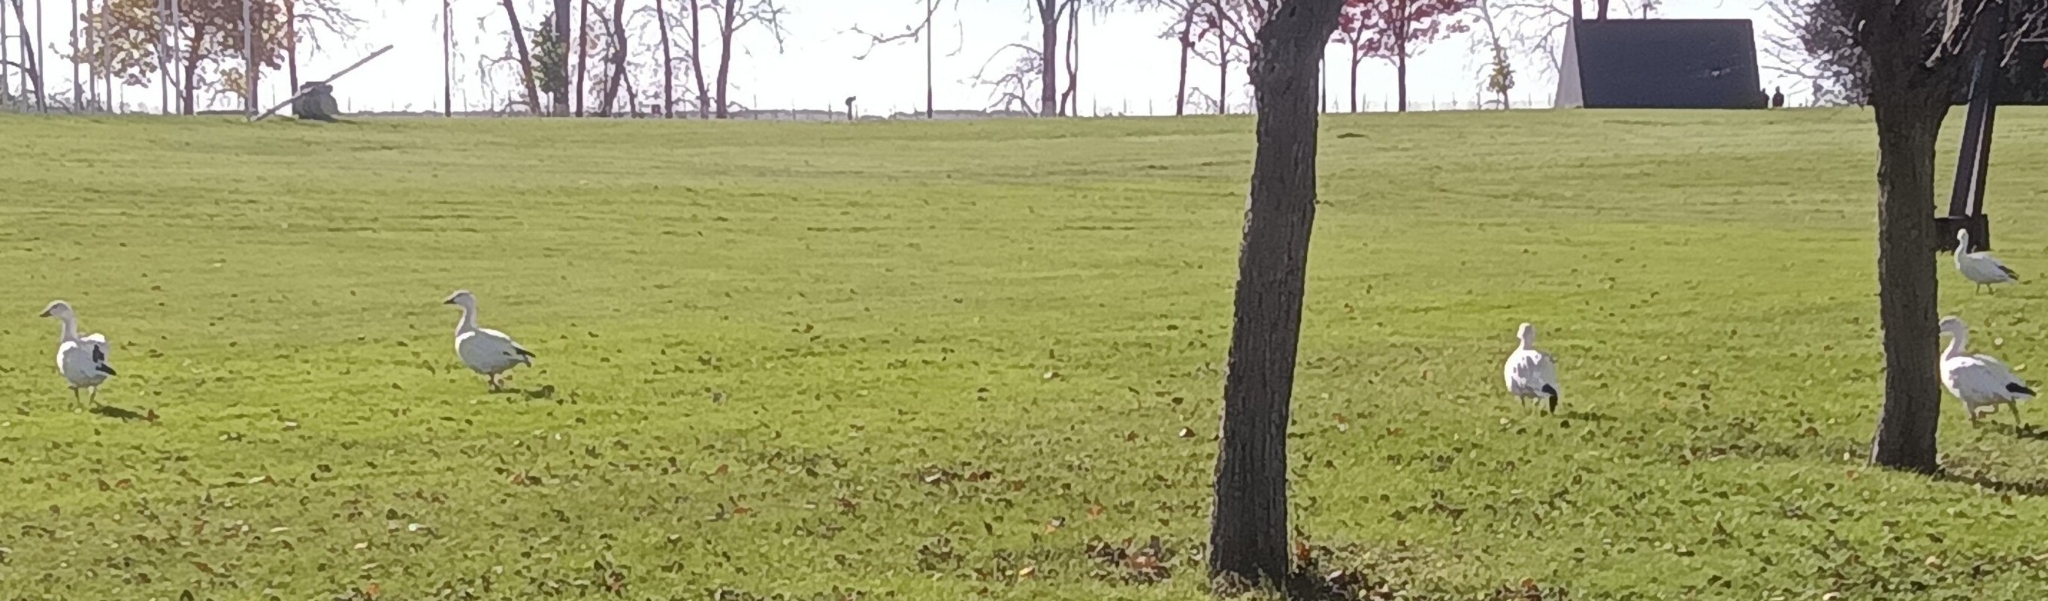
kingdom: Animalia
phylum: Chordata
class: Aves
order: Anseriformes
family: Anatidae
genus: Anser
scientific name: Anser caerulescens
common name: Snow goose
